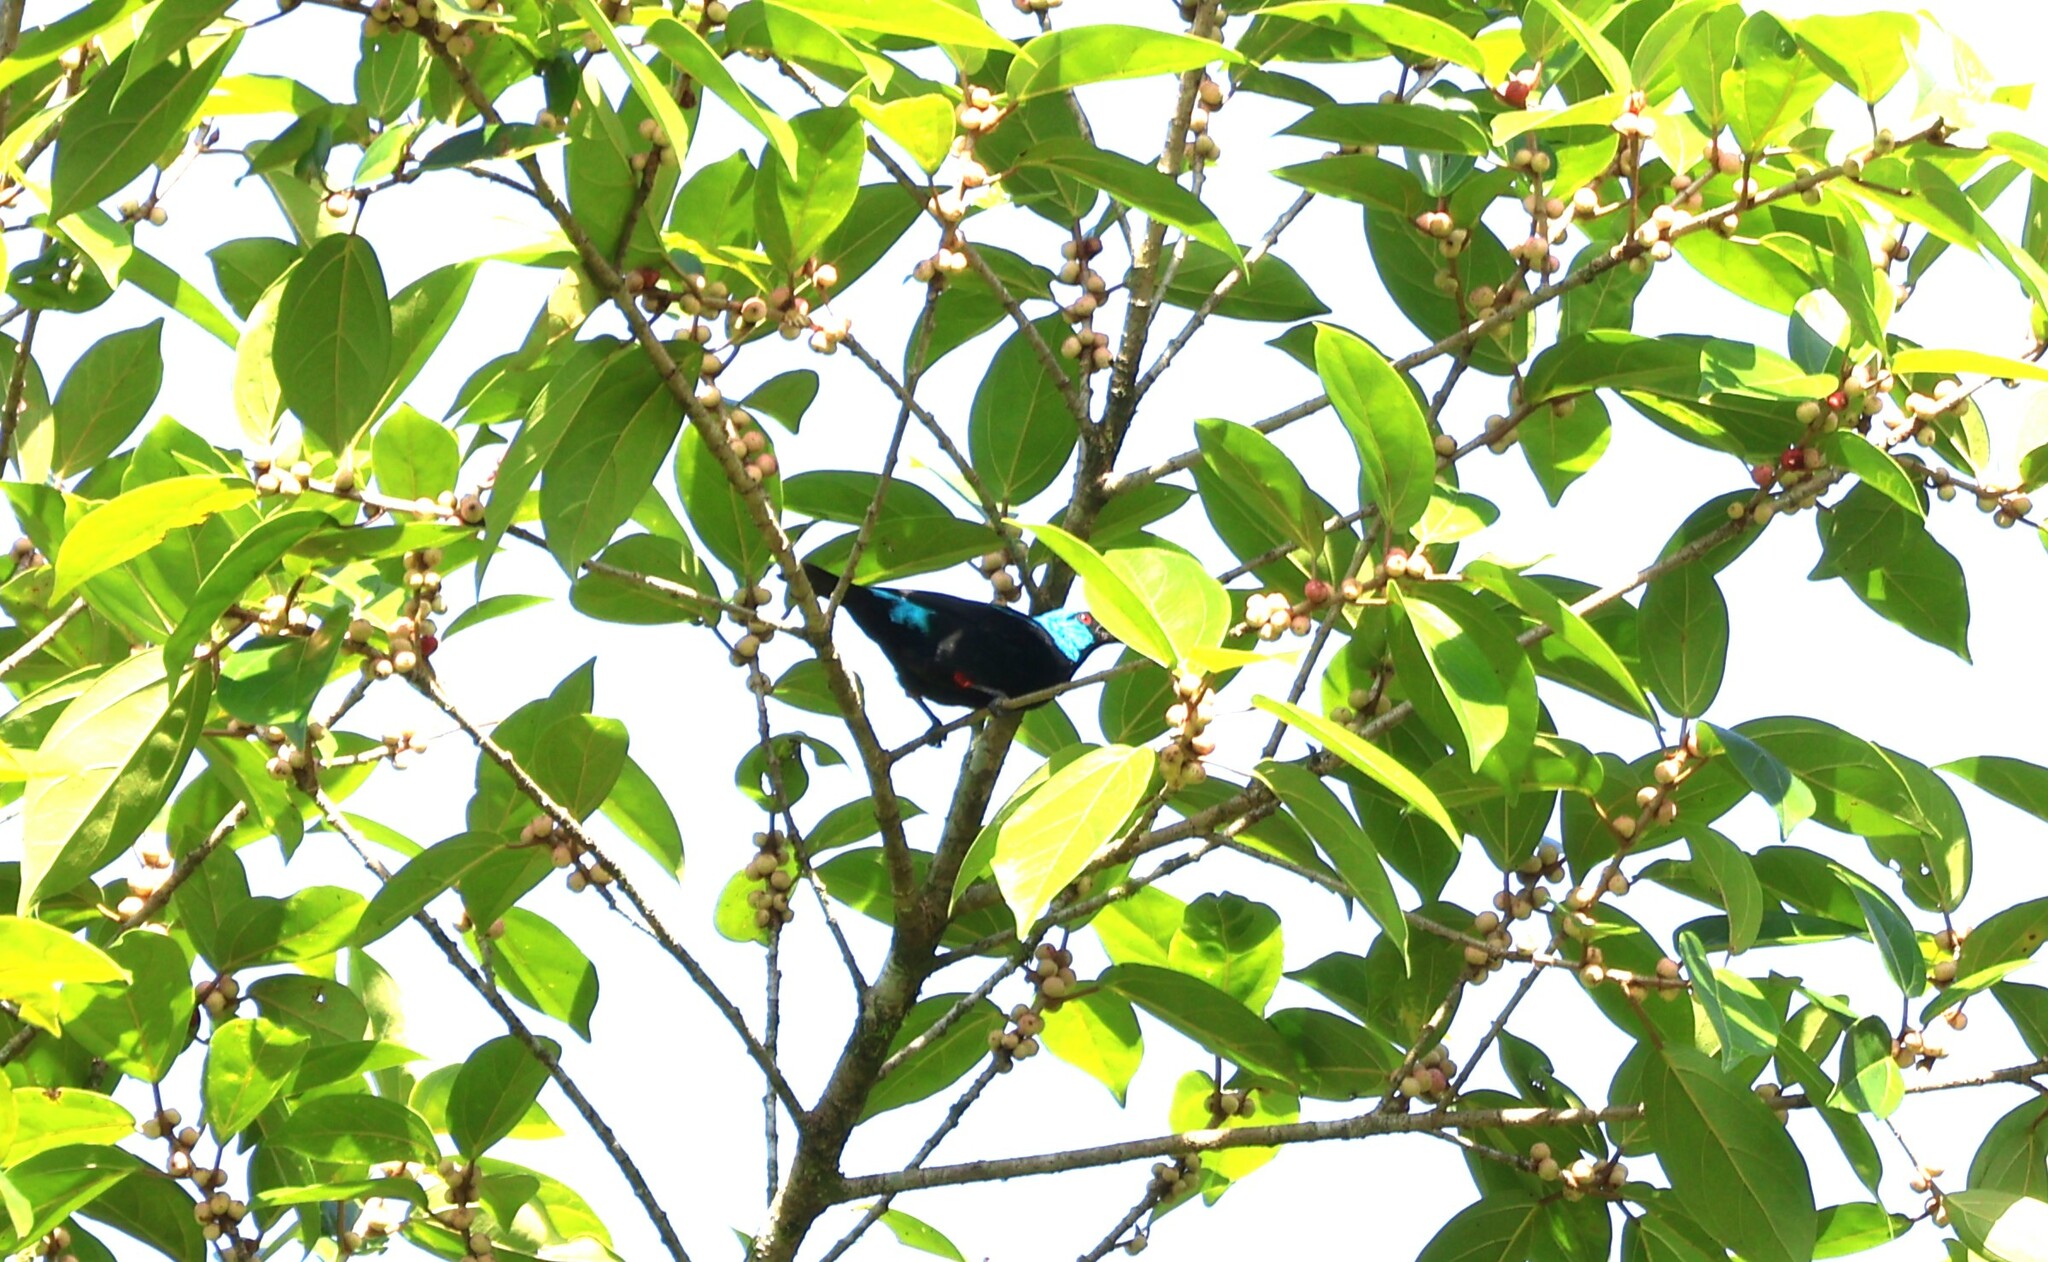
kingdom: Animalia
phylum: Chordata
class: Aves
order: Passeriformes
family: Thraupidae
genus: Dacnis
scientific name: Dacnis venusta
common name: Scarlet-thighed dacnis
